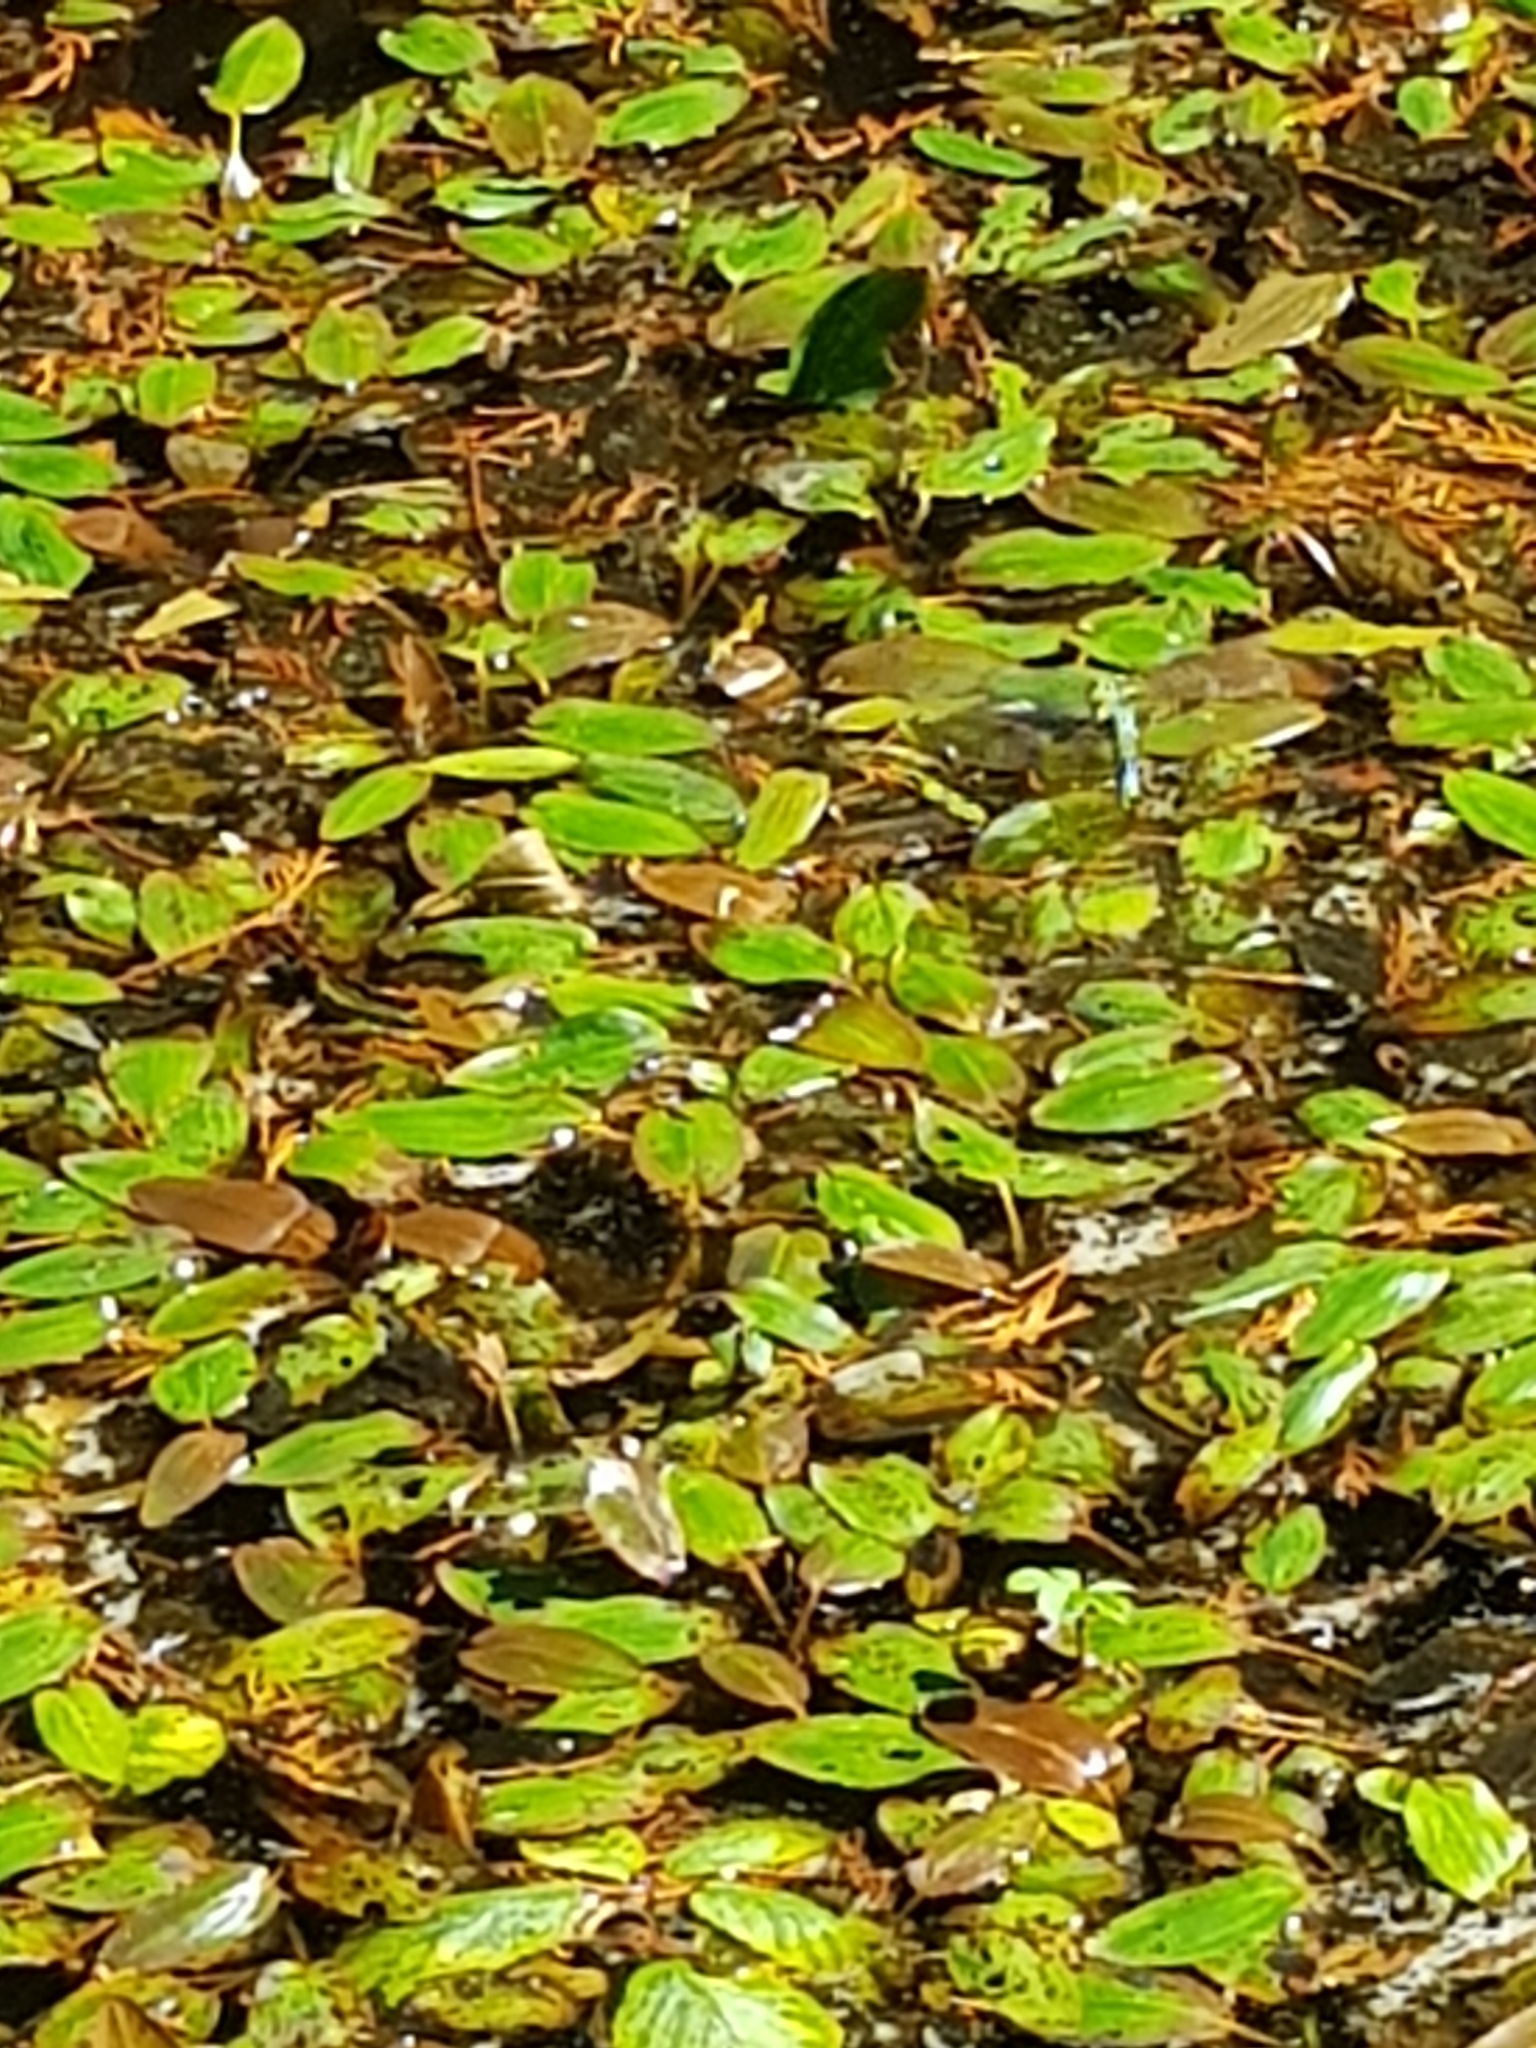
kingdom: Plantae
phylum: Tracheophyta
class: Liliopsida
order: Alismatales
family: Potamogetonaceae
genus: Potamogeton
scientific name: Potamogeton natans
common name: Broad-leaved pondweed
